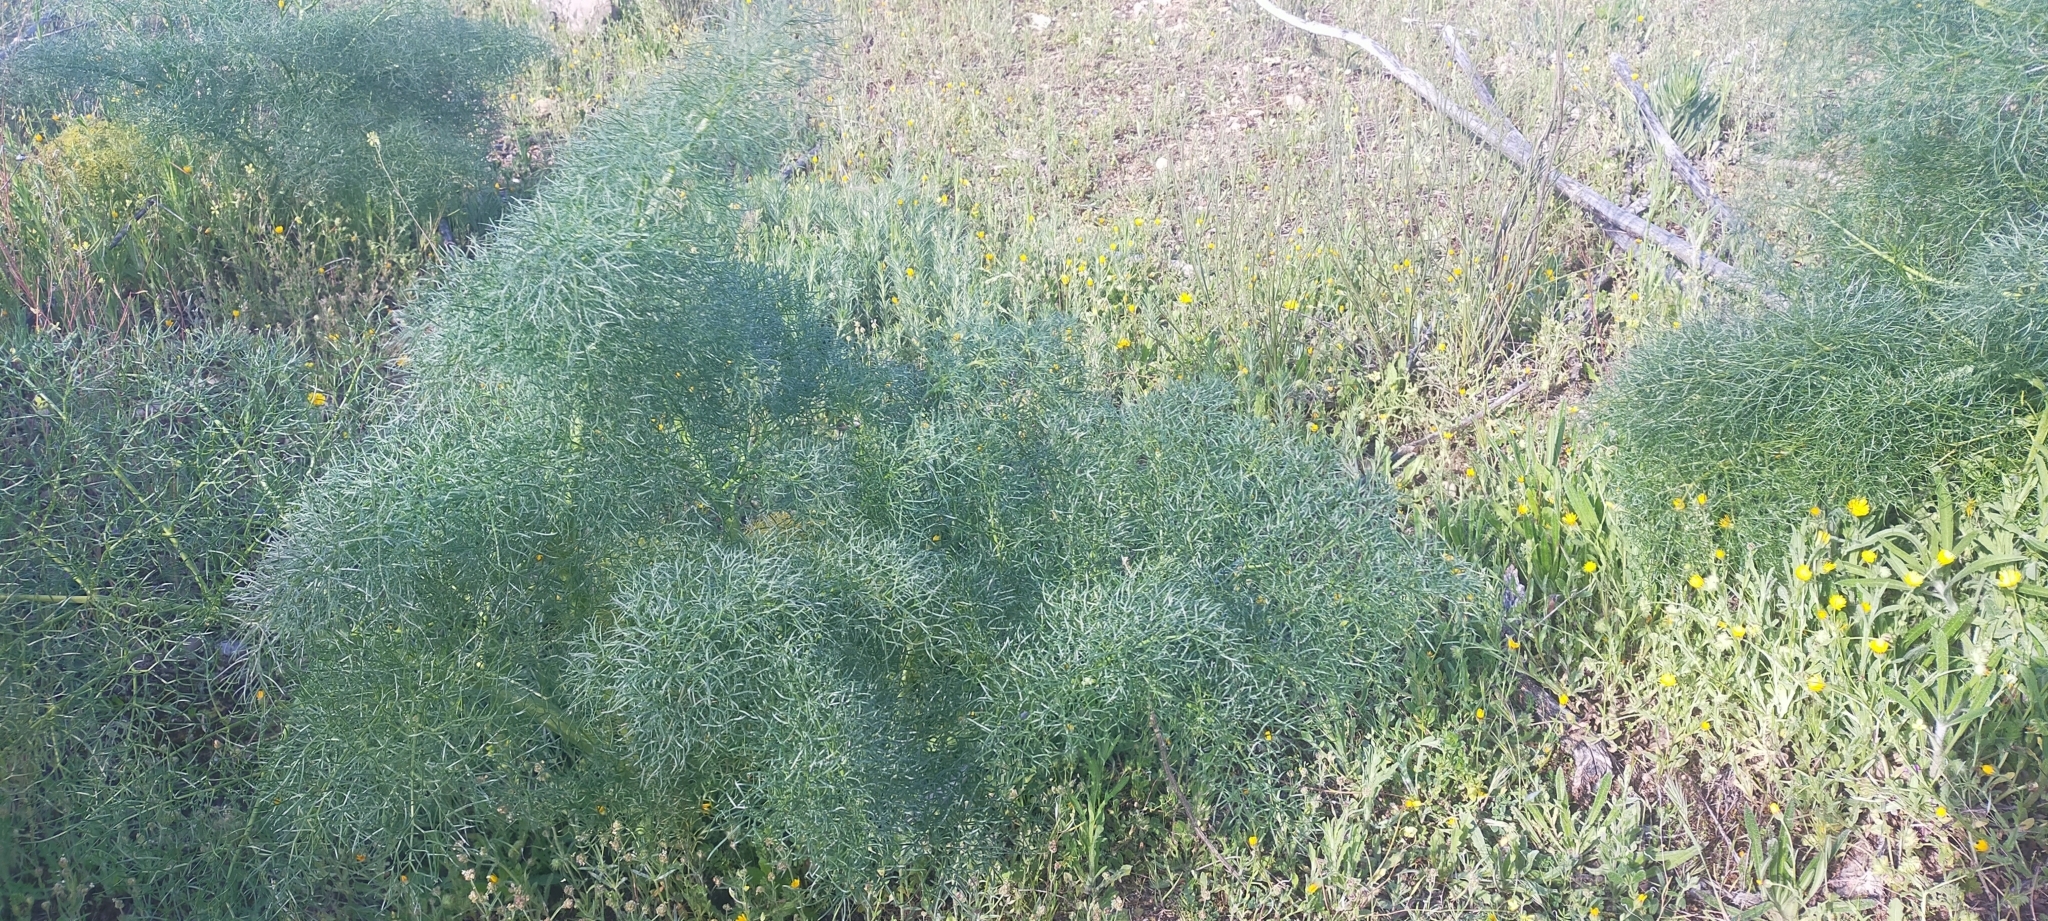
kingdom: Plantae
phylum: Tracheophyta
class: Magnoliopsida
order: Apiales
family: Apiaceae
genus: Ferula
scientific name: Ferula communis
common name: Giant fennel
